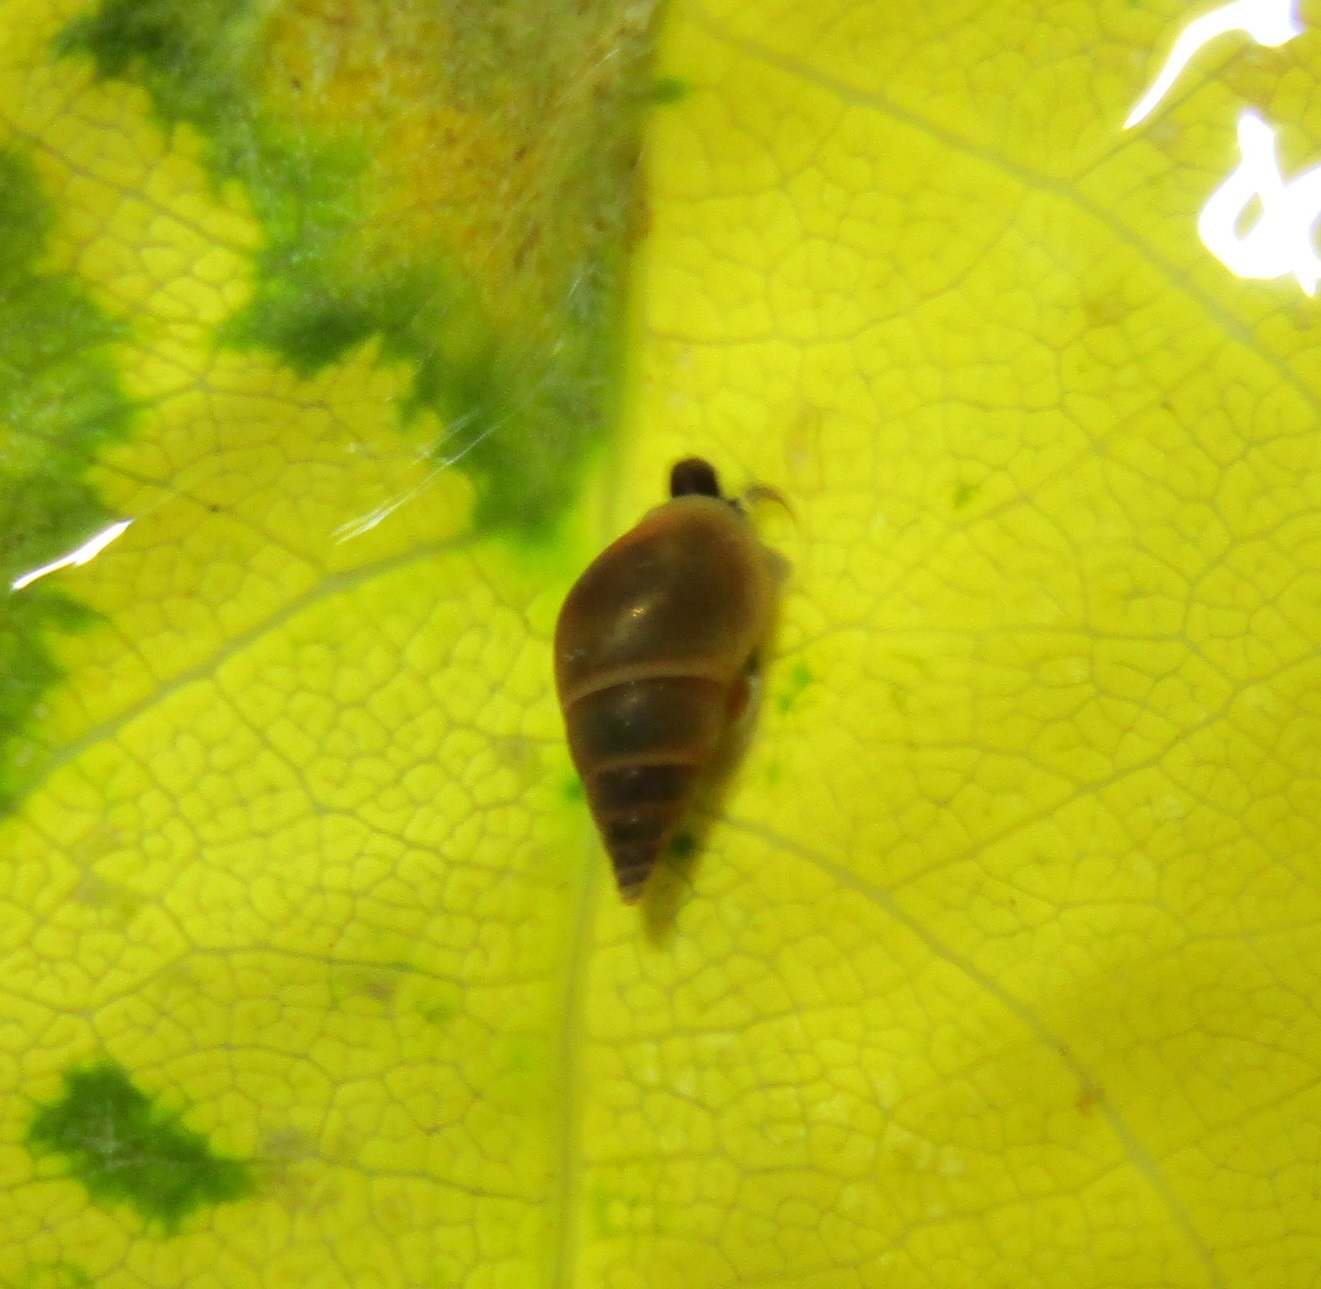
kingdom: Animalia
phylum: Mollusca
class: Gastropoda
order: Littorinimorpha
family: Tateidae
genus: Potamopyrgus
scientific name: Potamopyrgus antipodarum
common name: Jenkins' spire snail
